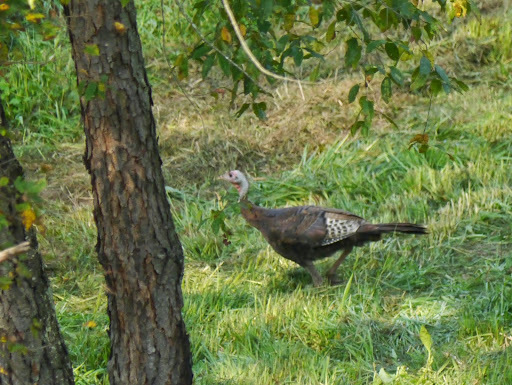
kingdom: Animalia
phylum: Chordata
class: Aves
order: Galliformes
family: Phasianidae
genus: Meleagris
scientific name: Meleagris gallopavo
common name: Wild turkey
